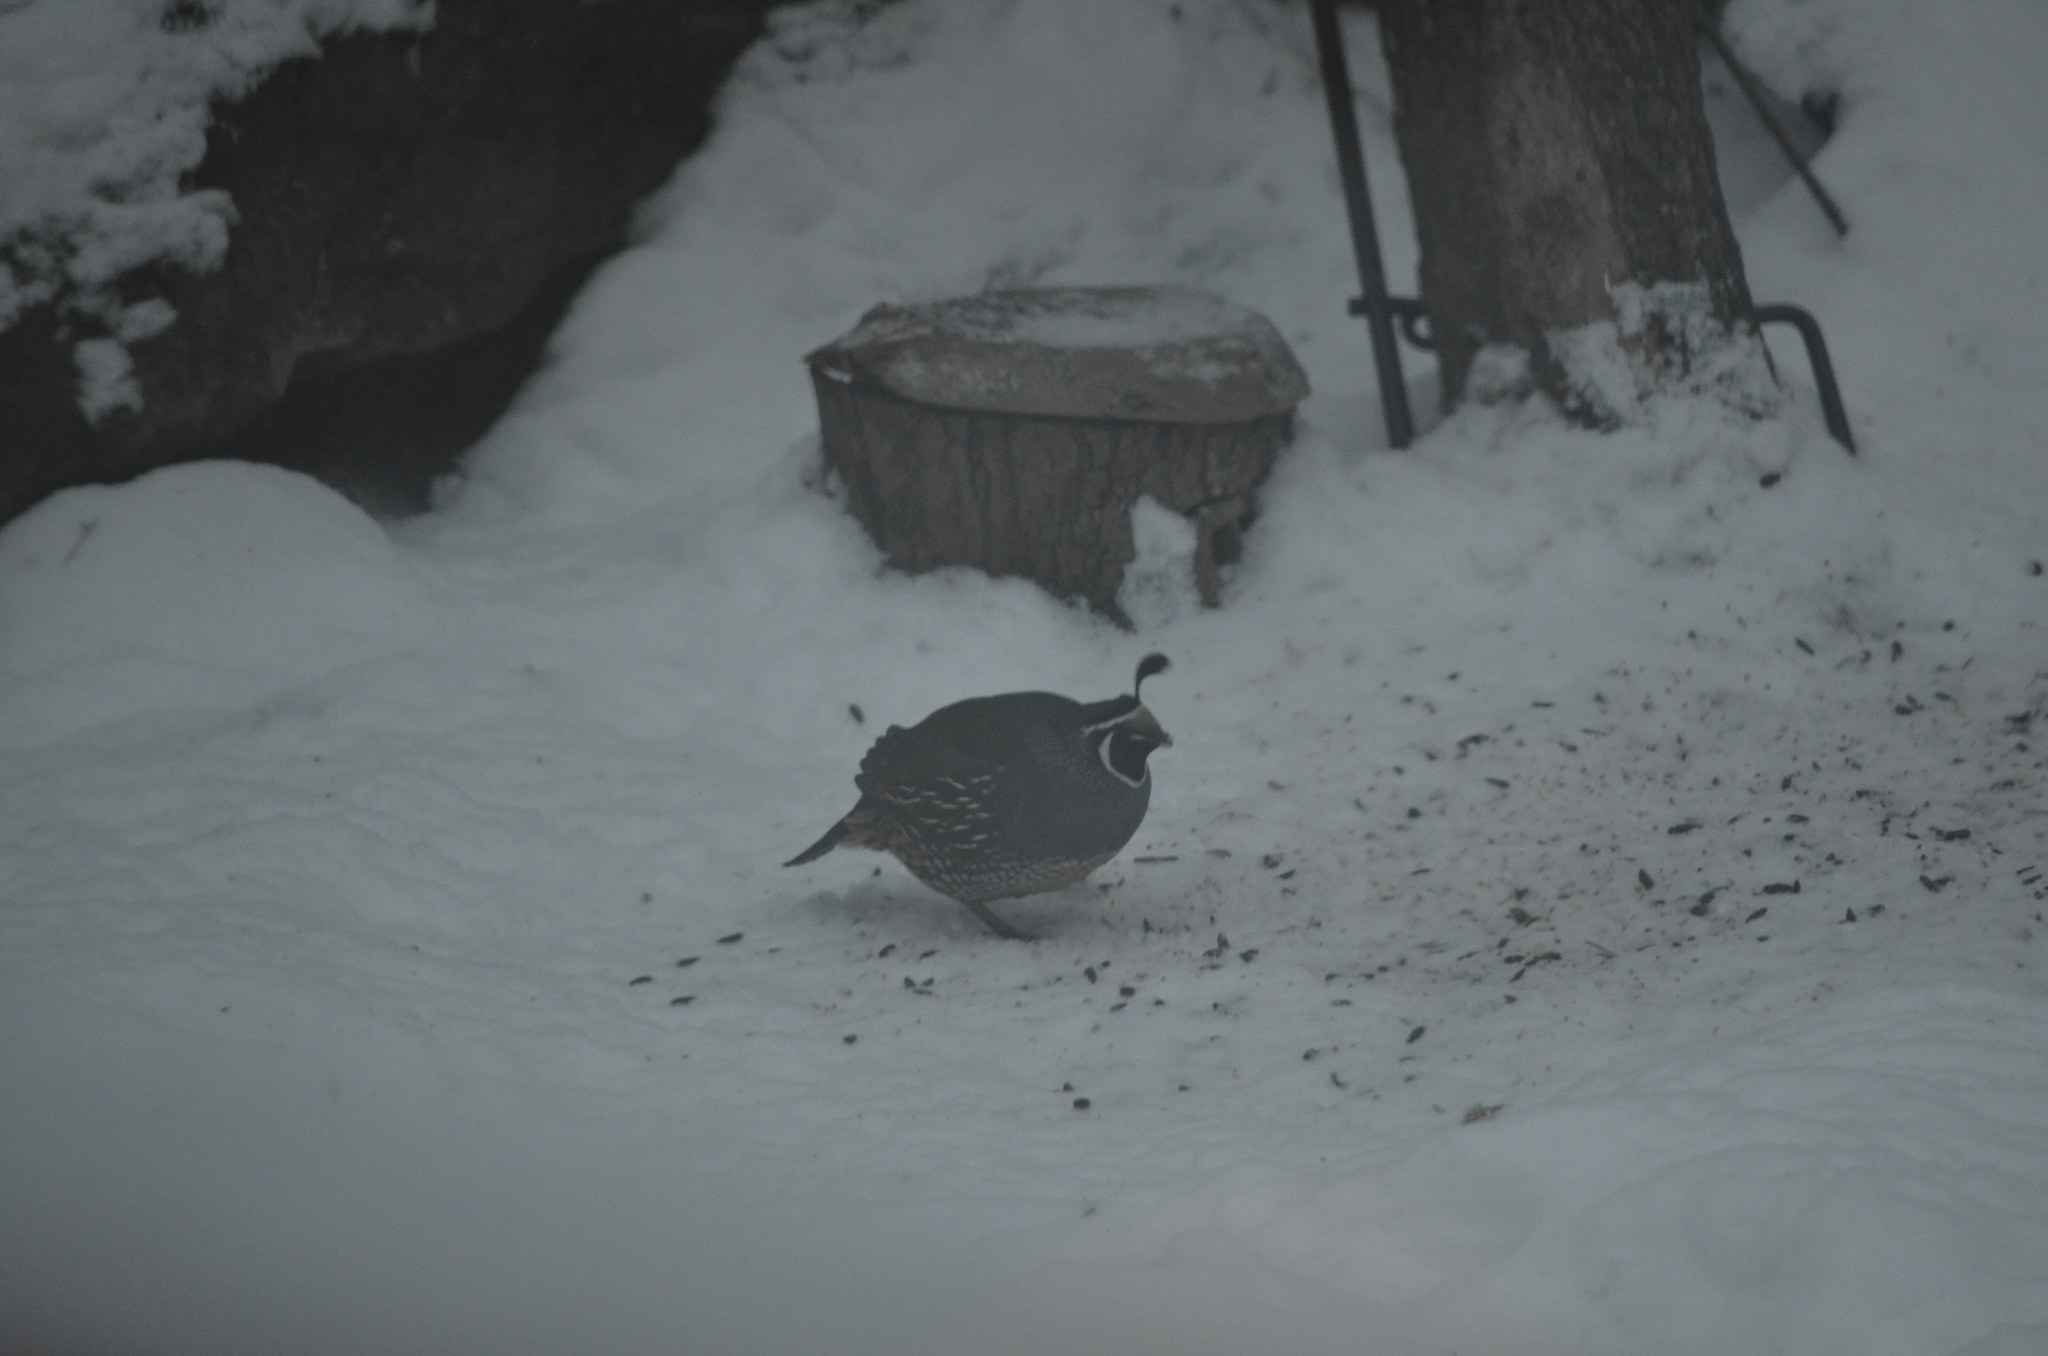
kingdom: Animalia
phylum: Chordata
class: Aves
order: Galliformes
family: Odontophoridae
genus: Callipepla
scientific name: Callipepla californica
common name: California quail
